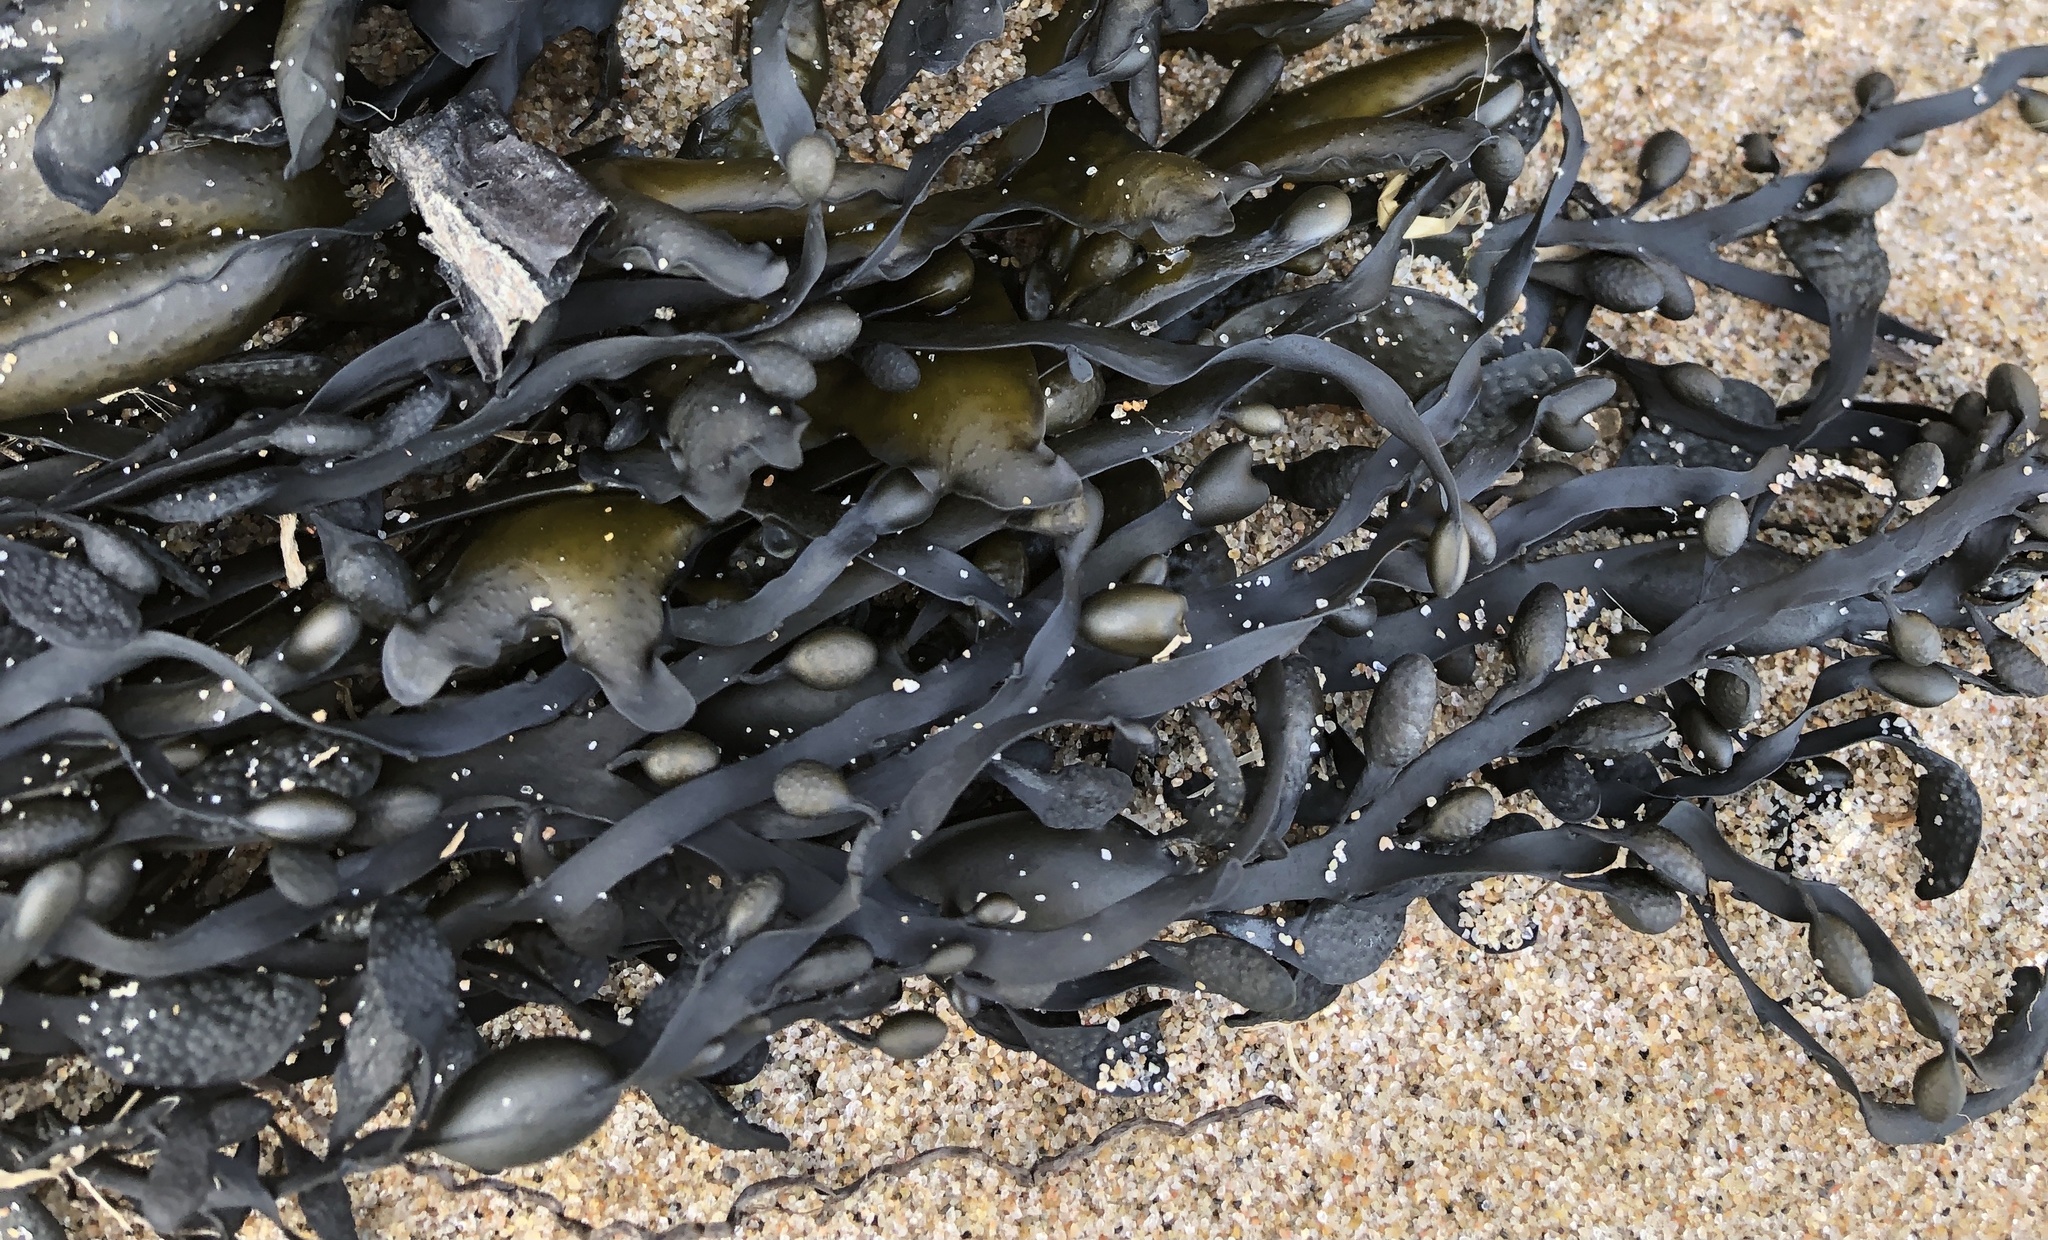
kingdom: Chromista
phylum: Ochrophyta
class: Phaeophyceae
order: Fucales
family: Fucaceae
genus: Ascophyllum
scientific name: Ascophyllum nodosum
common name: Knotted wrack
